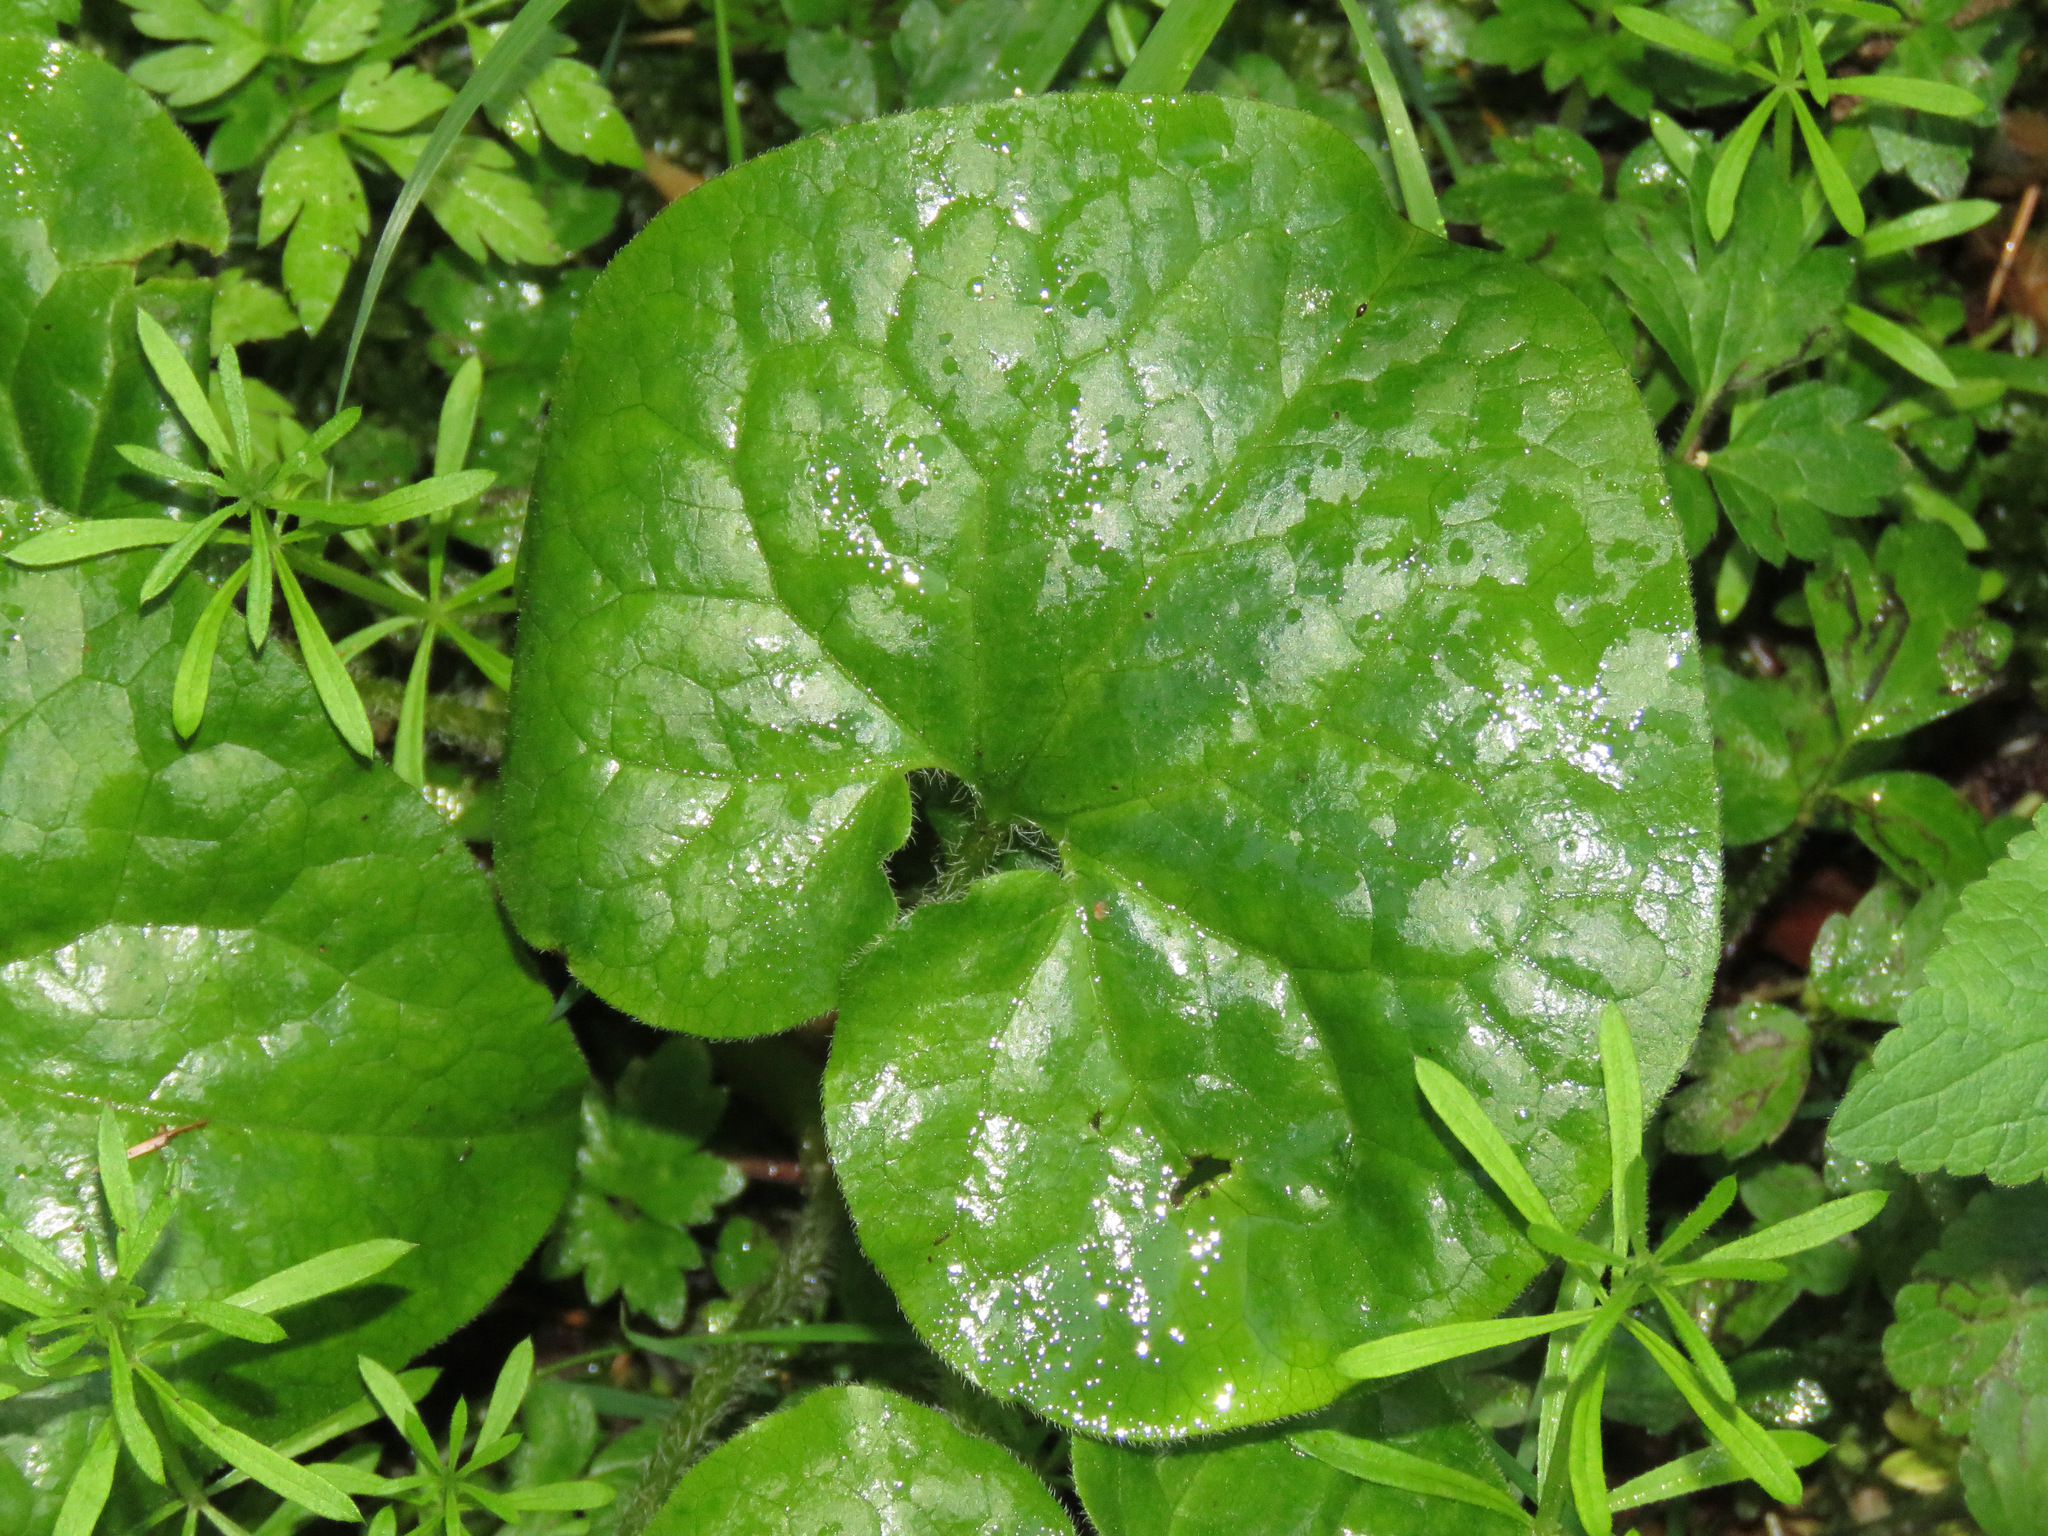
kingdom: Plantae
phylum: Tracheophyta
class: Magnoliopsida
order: Piperales
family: Aristolochiaceae
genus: Asarum
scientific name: Asarum caudatum
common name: Wild ginger
